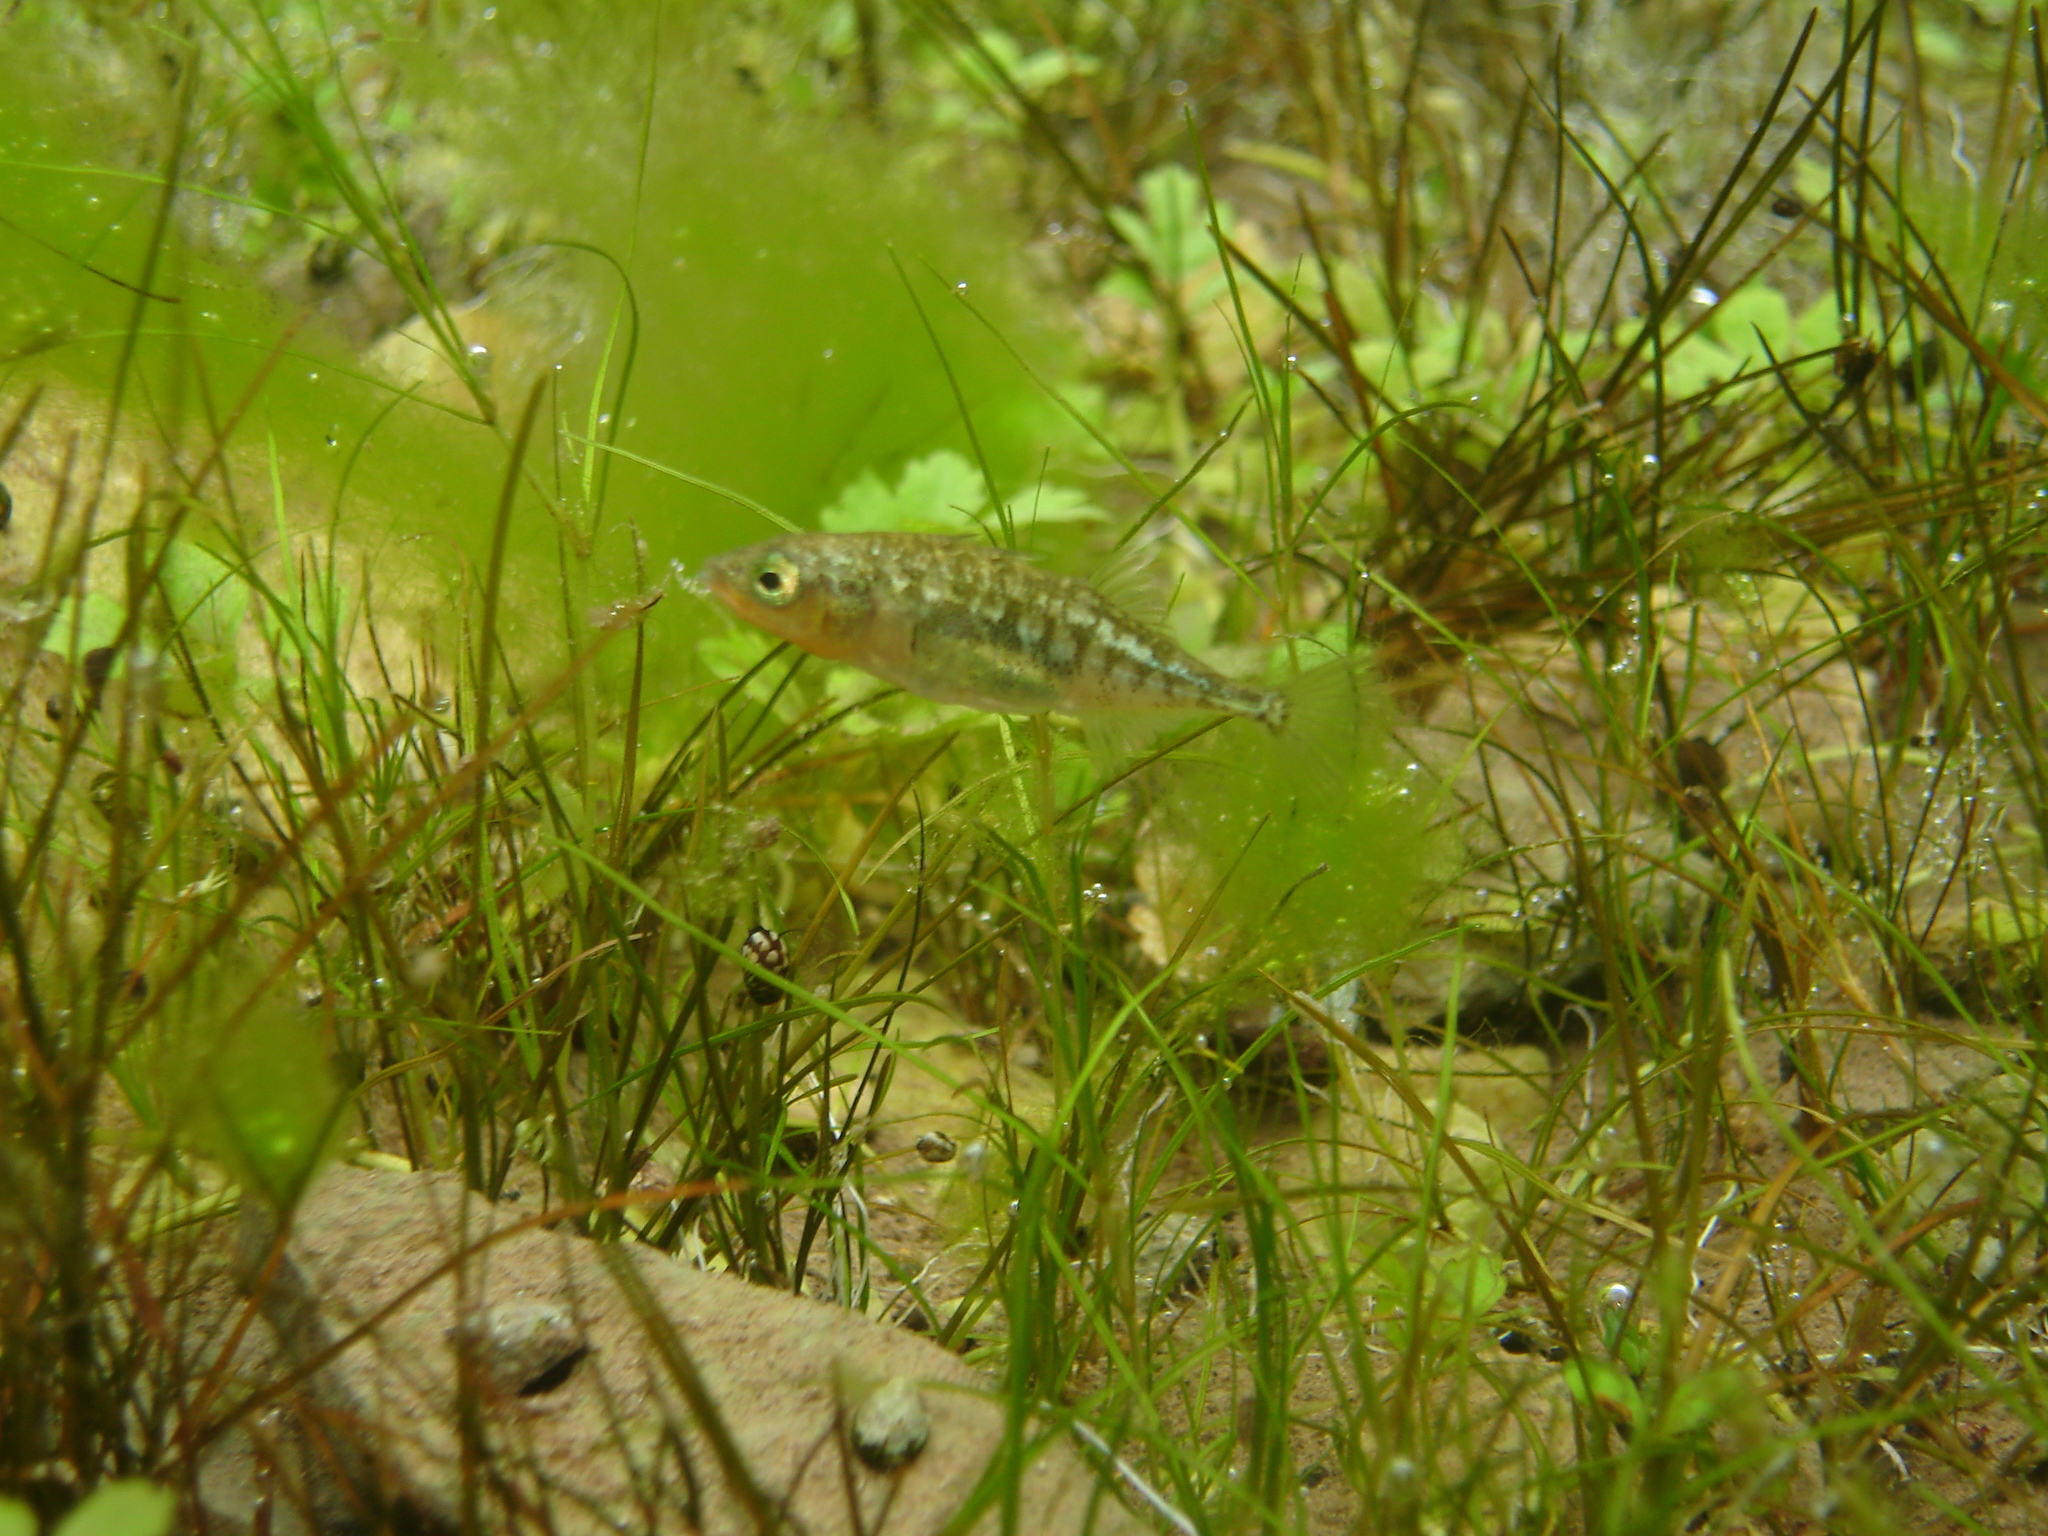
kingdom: Animalia
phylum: Chordata
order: Gasterosteiformes
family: Gasterosteidae
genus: Gasterosteus
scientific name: Gasterosteus aculeatus
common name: Three-spined stickleback
